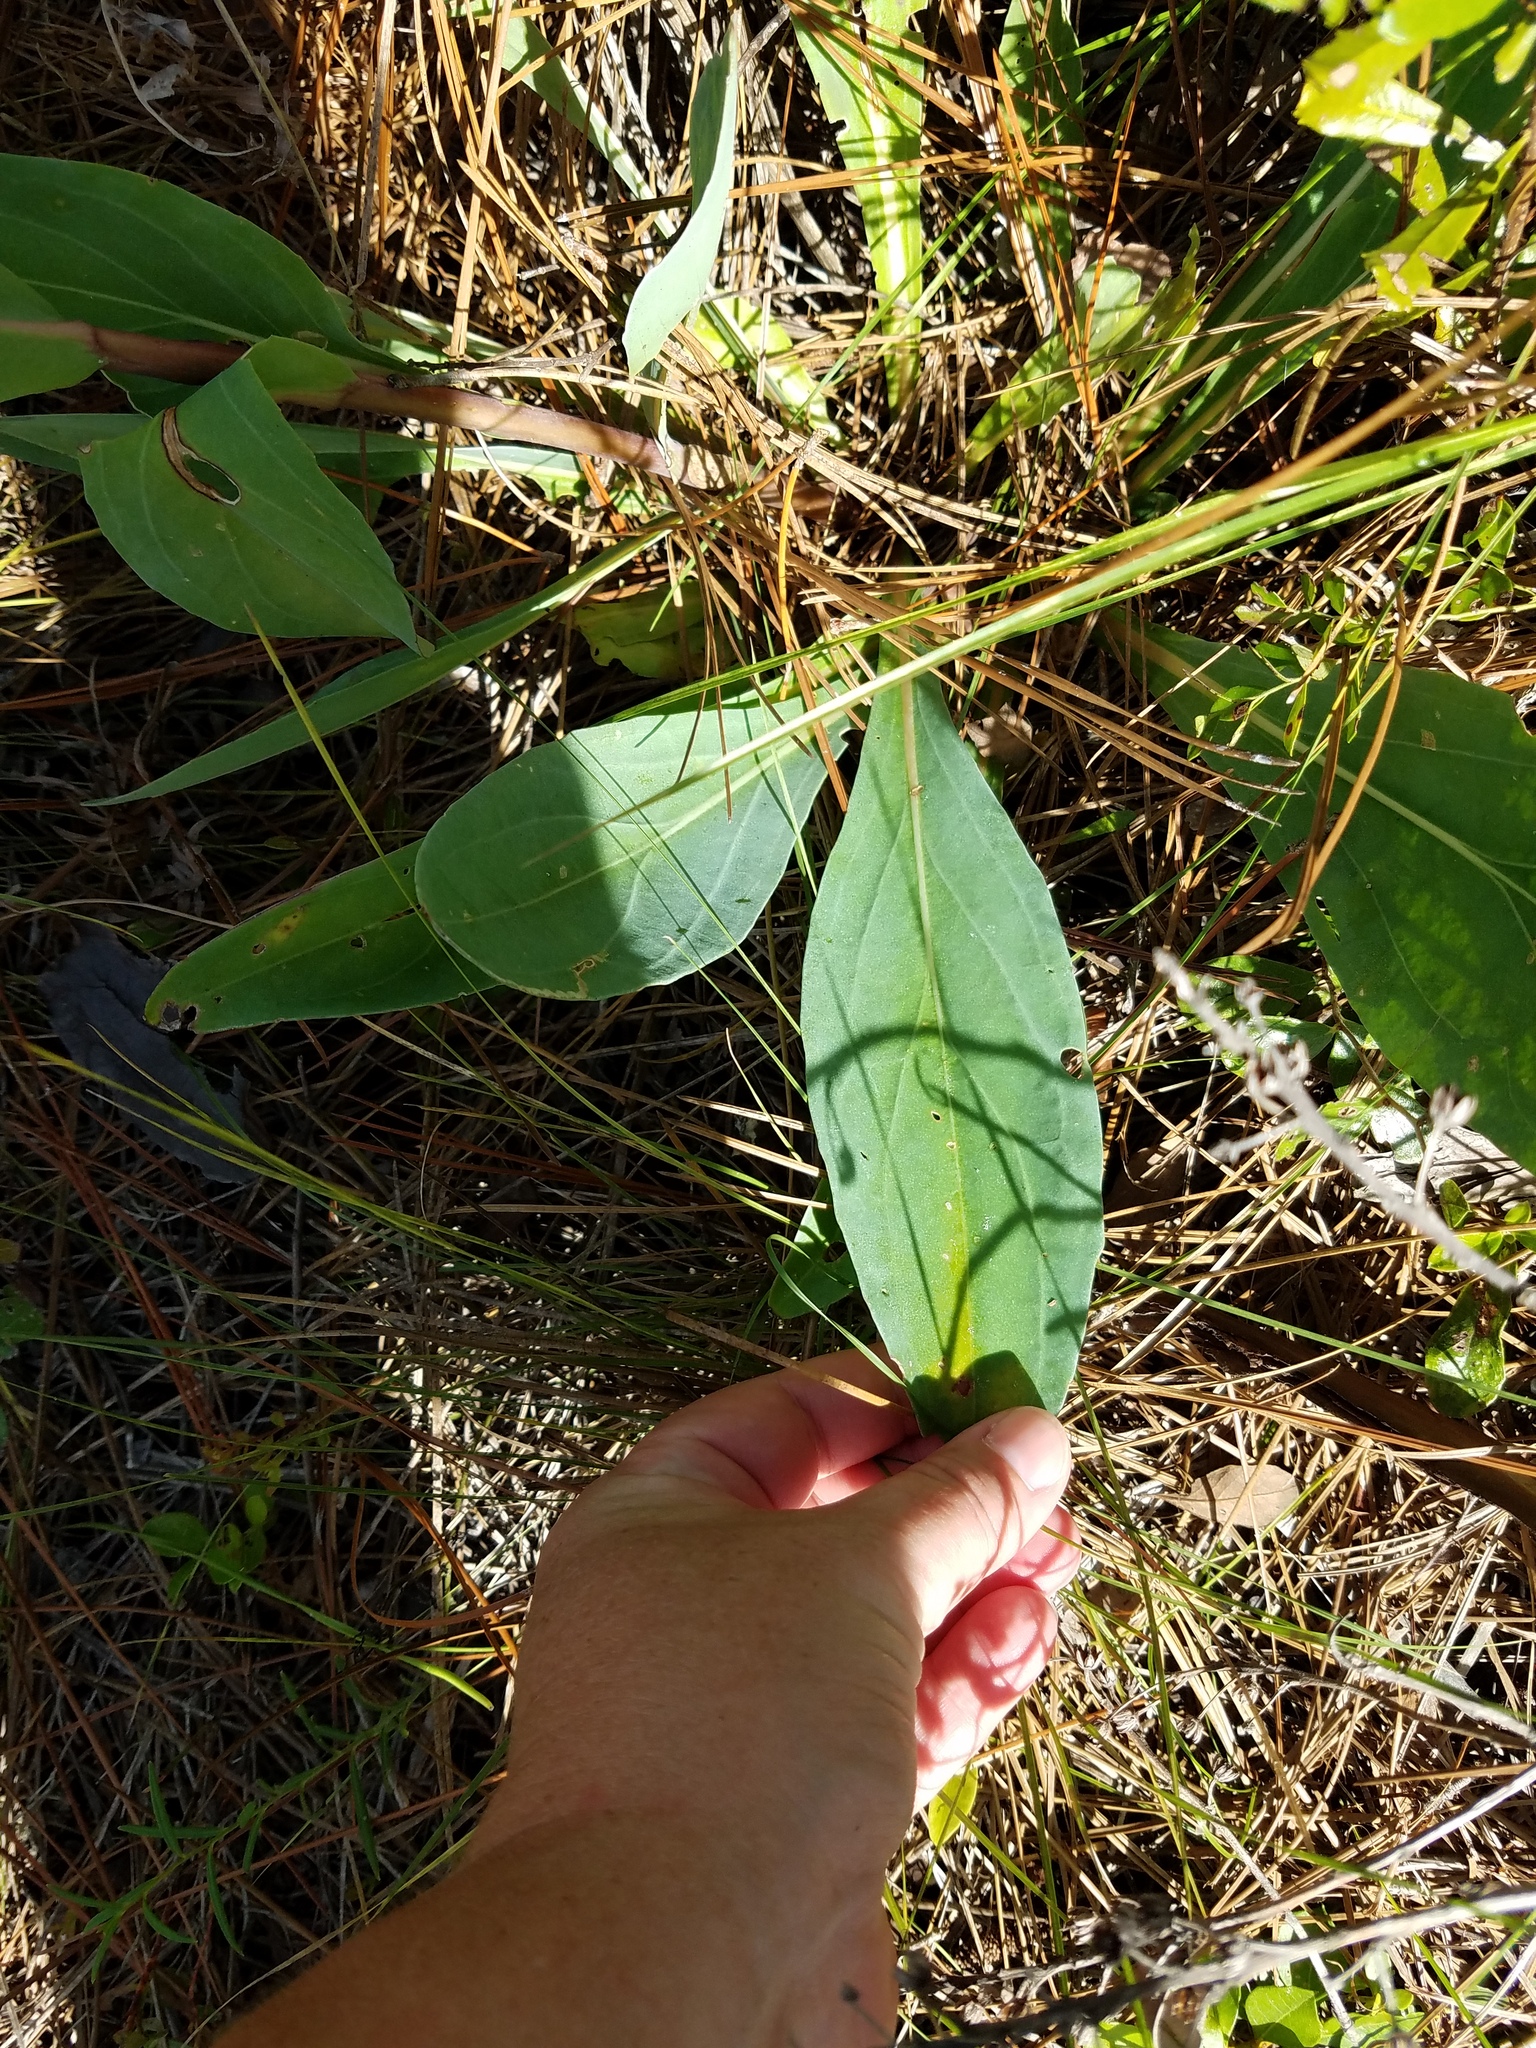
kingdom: Plantae
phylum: Tracheophyta
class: Magnoliopsida
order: Asterales
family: Asteraceae
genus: Carphephorus
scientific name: Carphephorus odoratissimus
